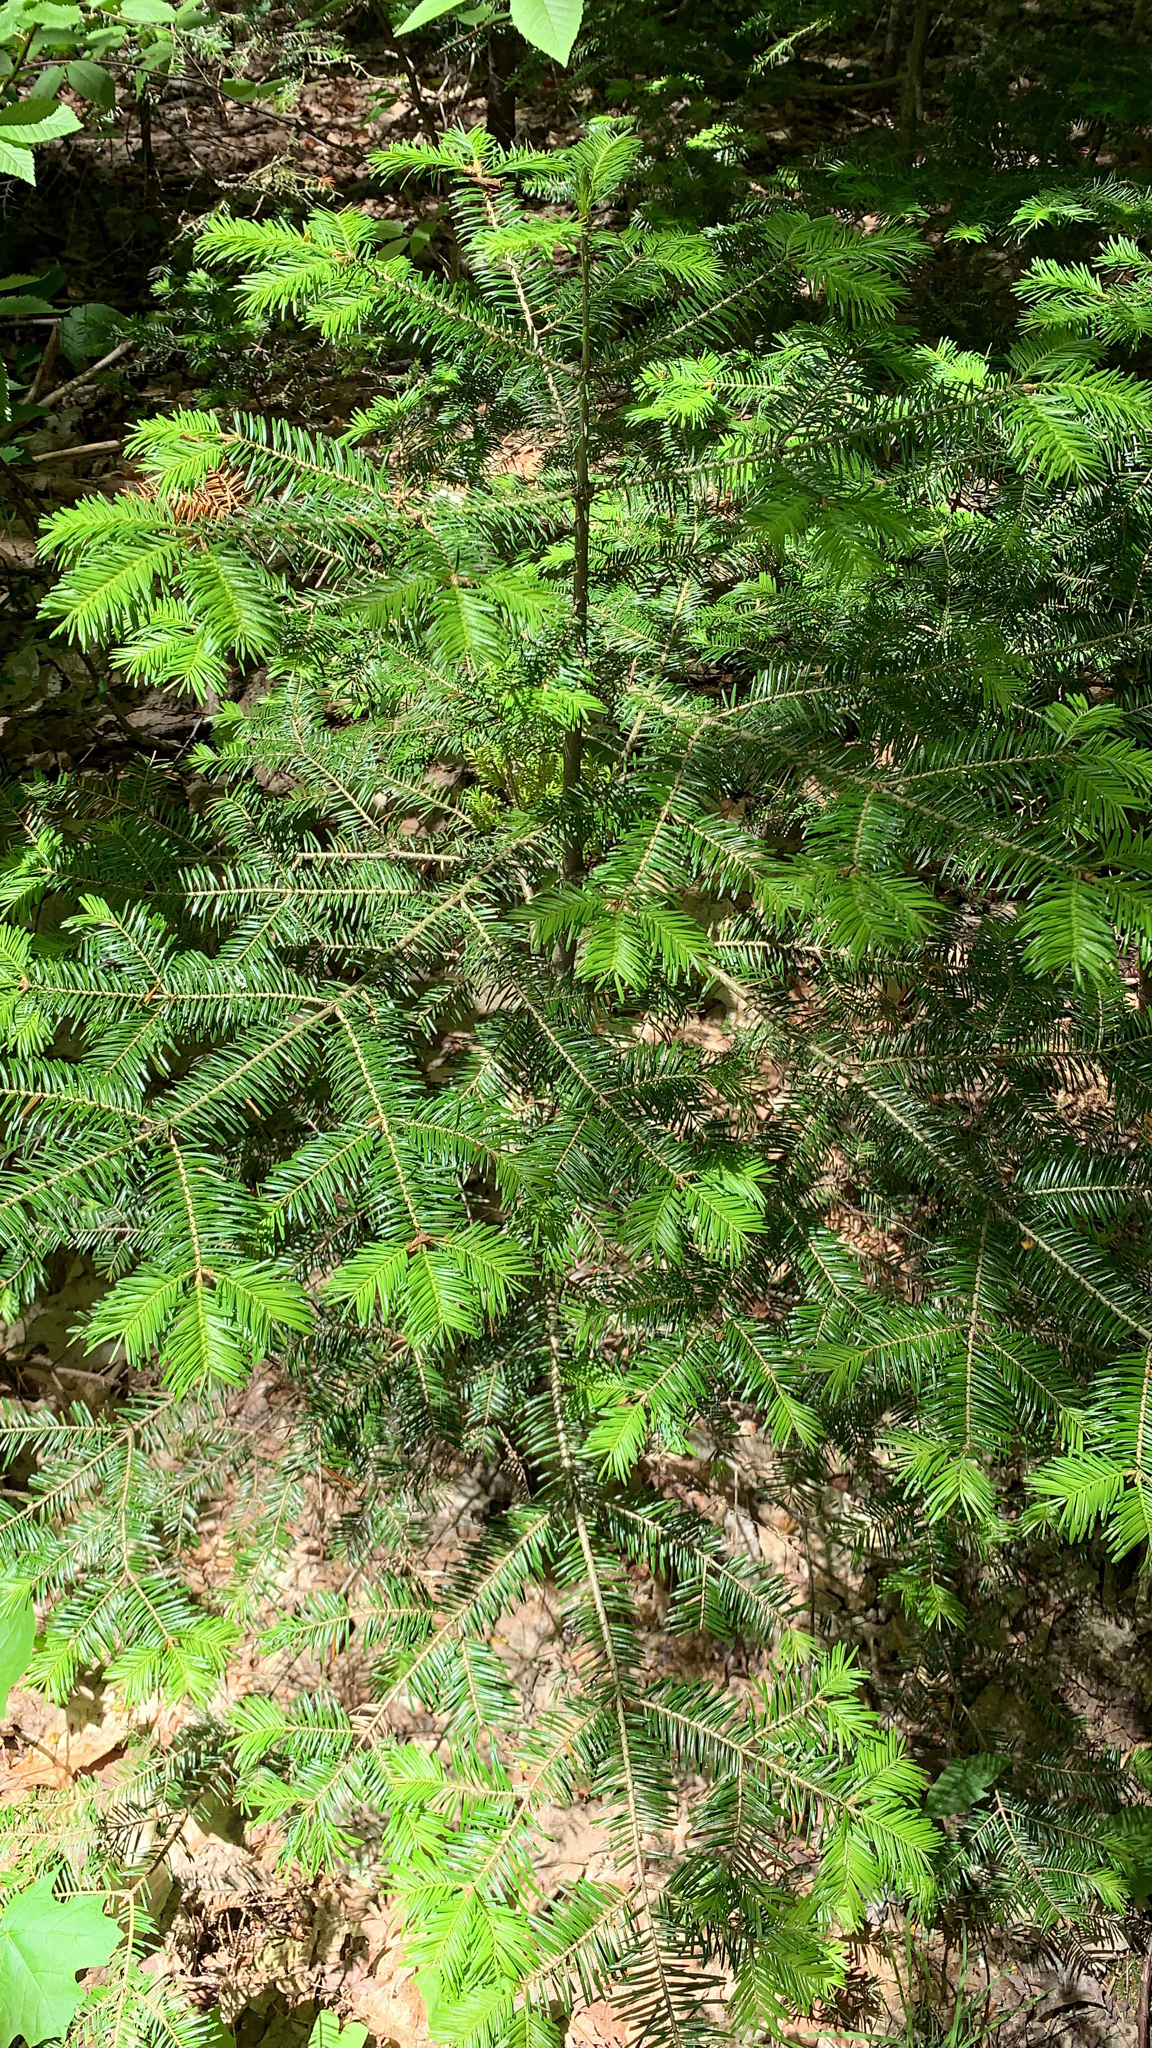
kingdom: Plantae
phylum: Tracheophyta
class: Pinopsida
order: Pinales
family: Pinaceae
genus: Abies
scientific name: Abies balsamea
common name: Balsam fir
